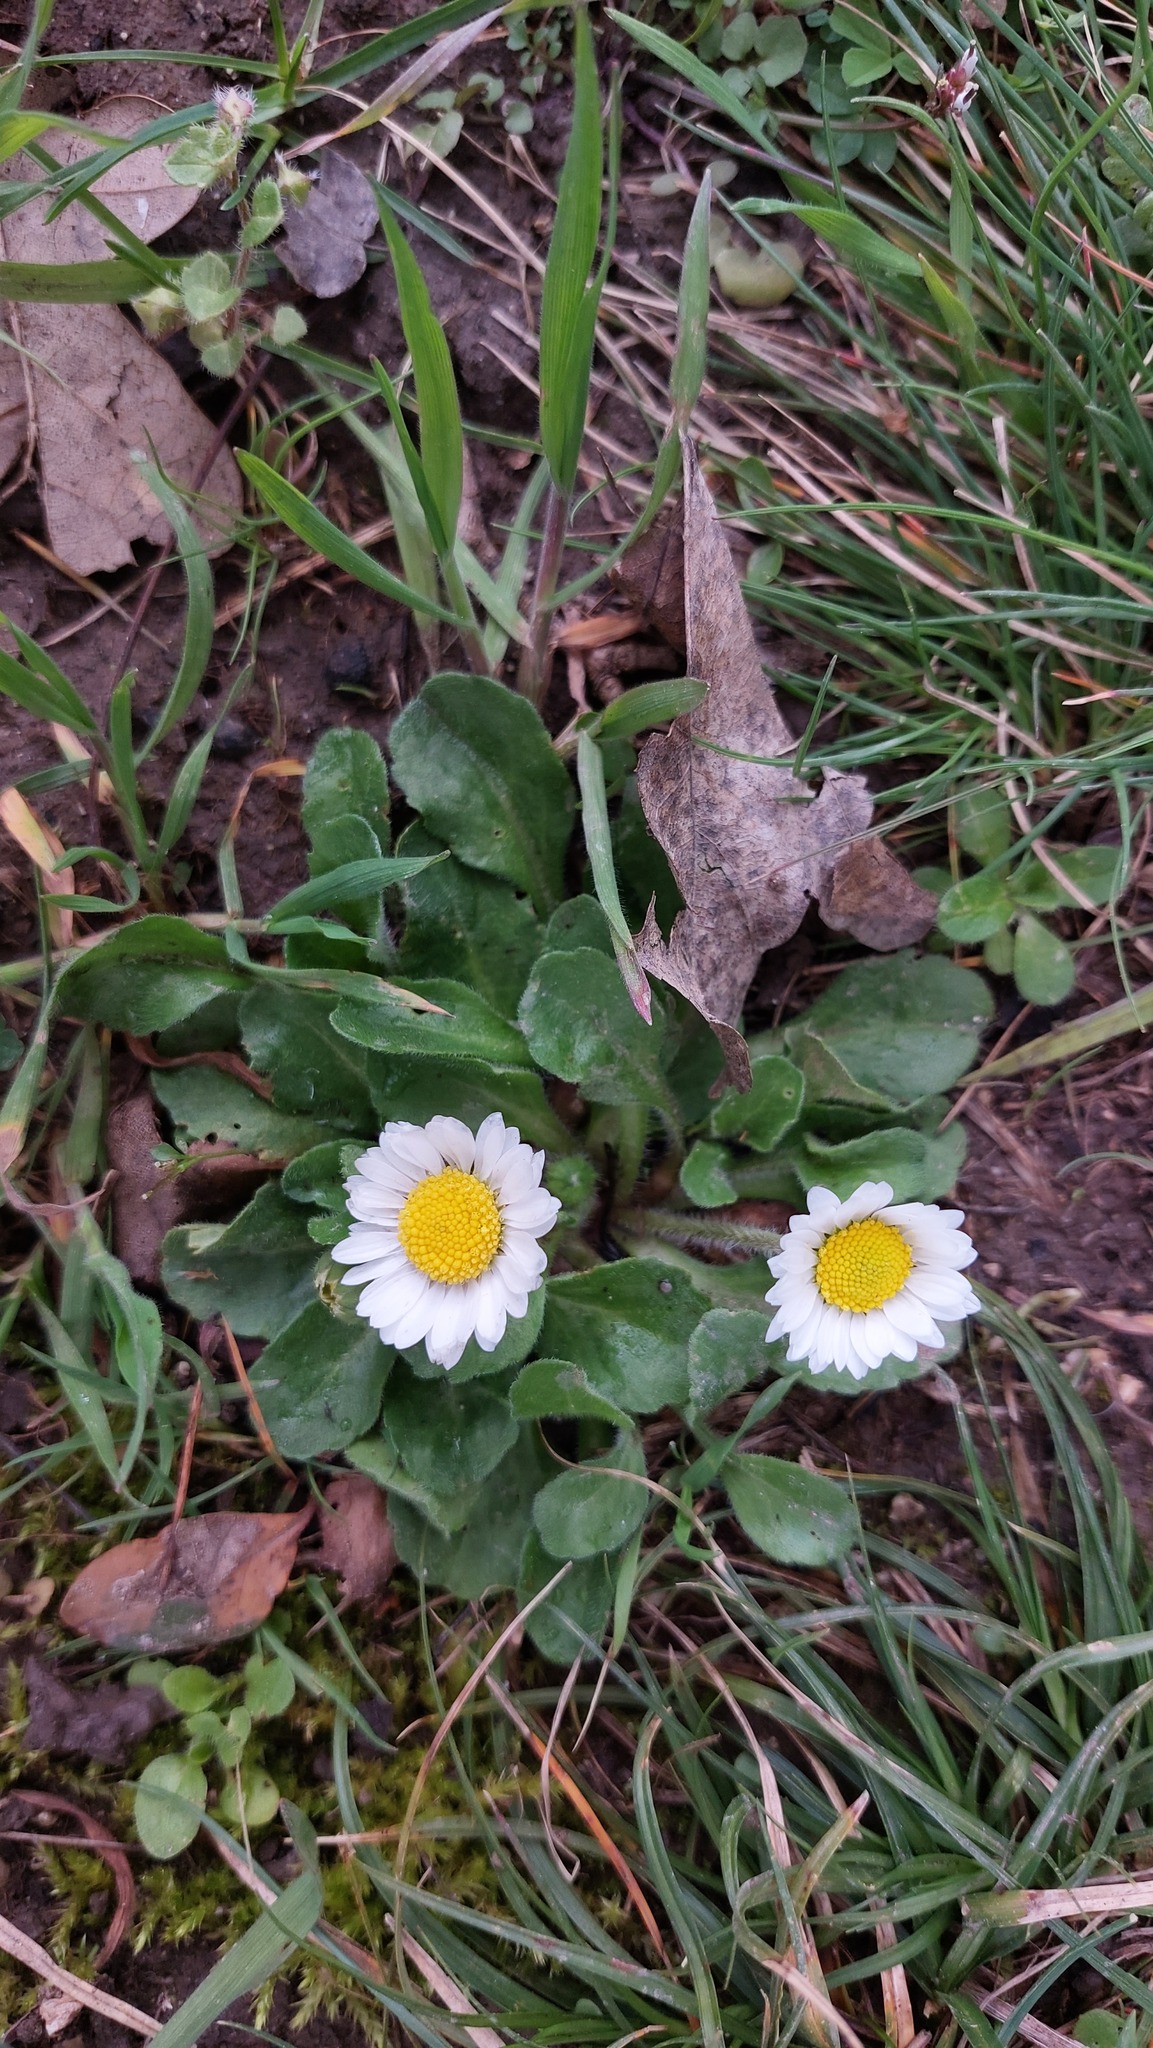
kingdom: Plantae
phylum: Tracheophyta
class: Magnoliopsida
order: Asterales
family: Asteraceae
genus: Bellis
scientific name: Bellis perennis
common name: Lawndaisy
